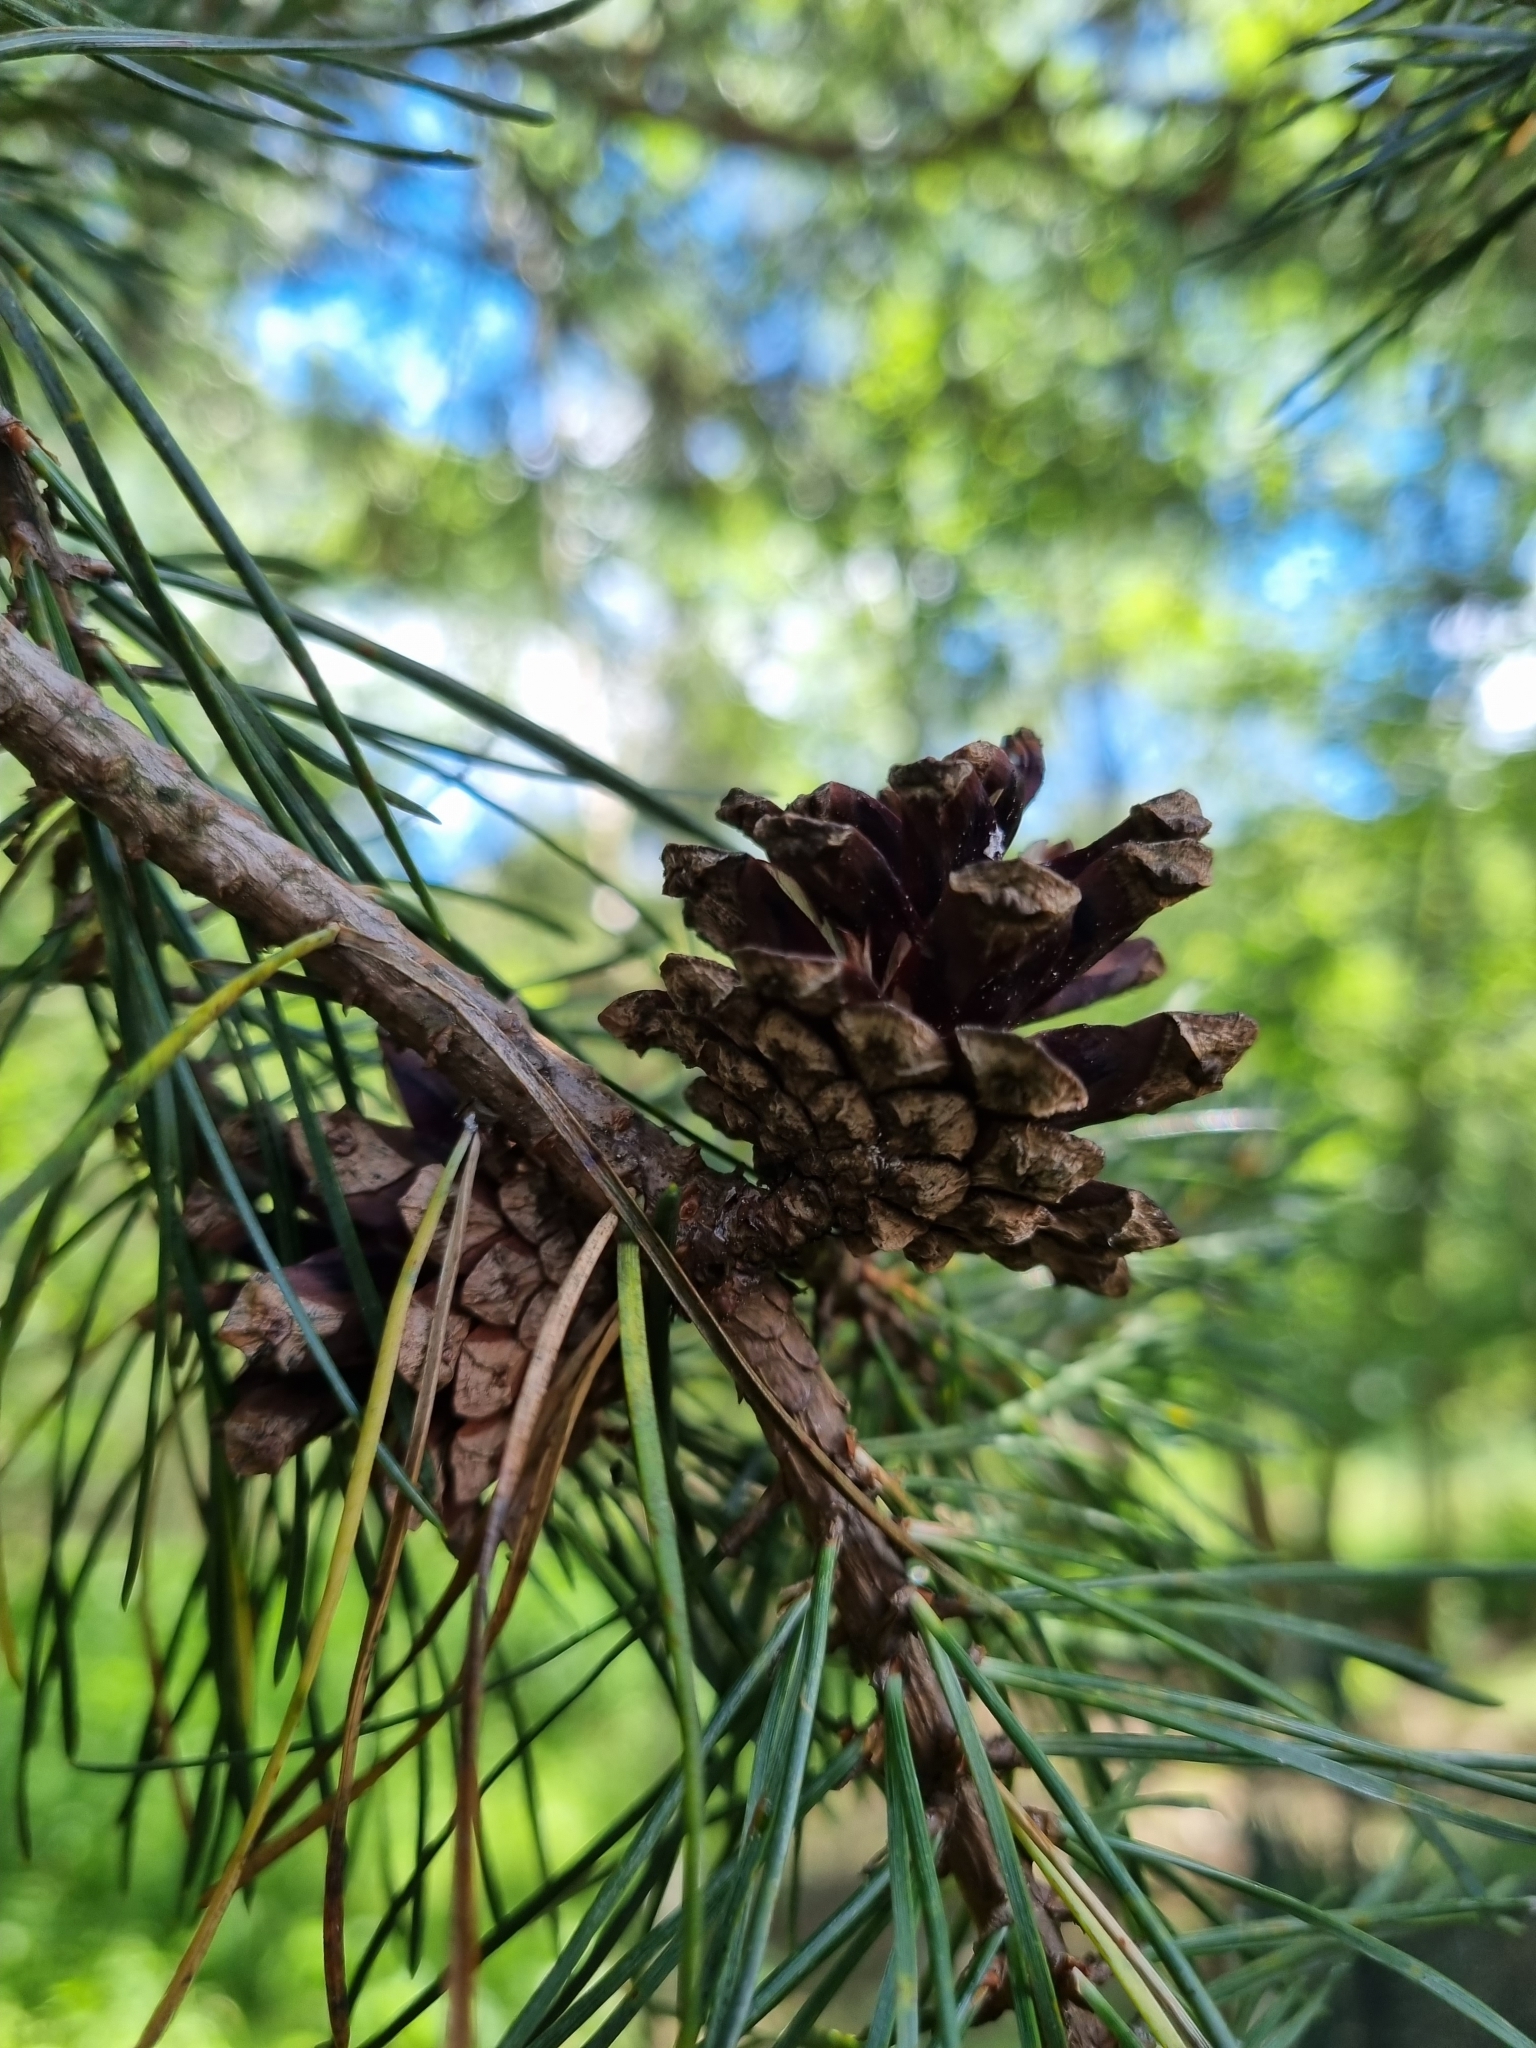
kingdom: Plantae
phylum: Tracheophyta
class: Pinopsida
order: Pinales
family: Pinaceae
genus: Pinus
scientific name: Pinus sylvestris
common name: Scots pine
